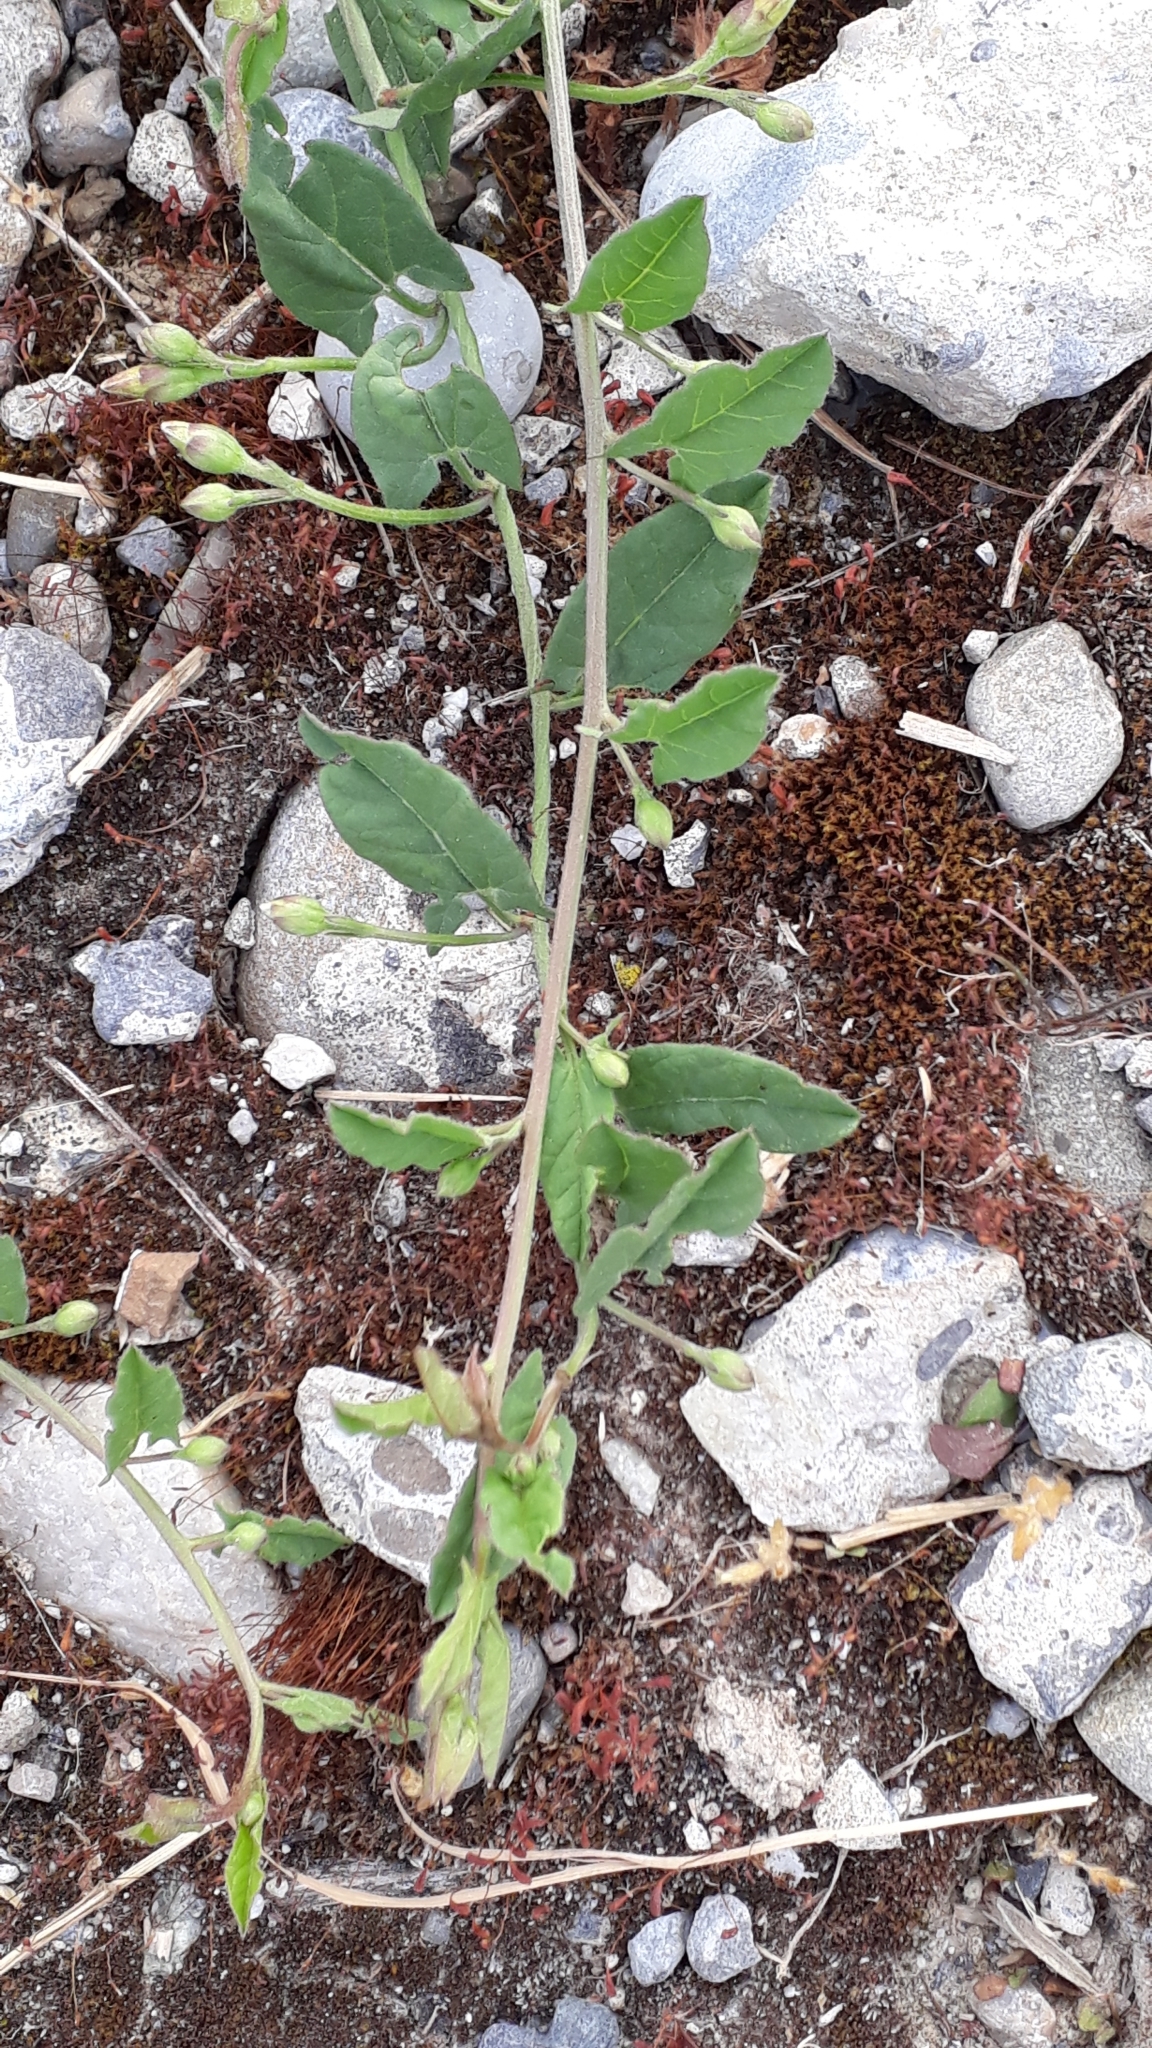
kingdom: Plantae
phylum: Tracheophyta
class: Magnoliopsida
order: Solanales
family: Convolvulaceae
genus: Convolvulus
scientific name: Convolvulus arvensis
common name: Field bindweed
